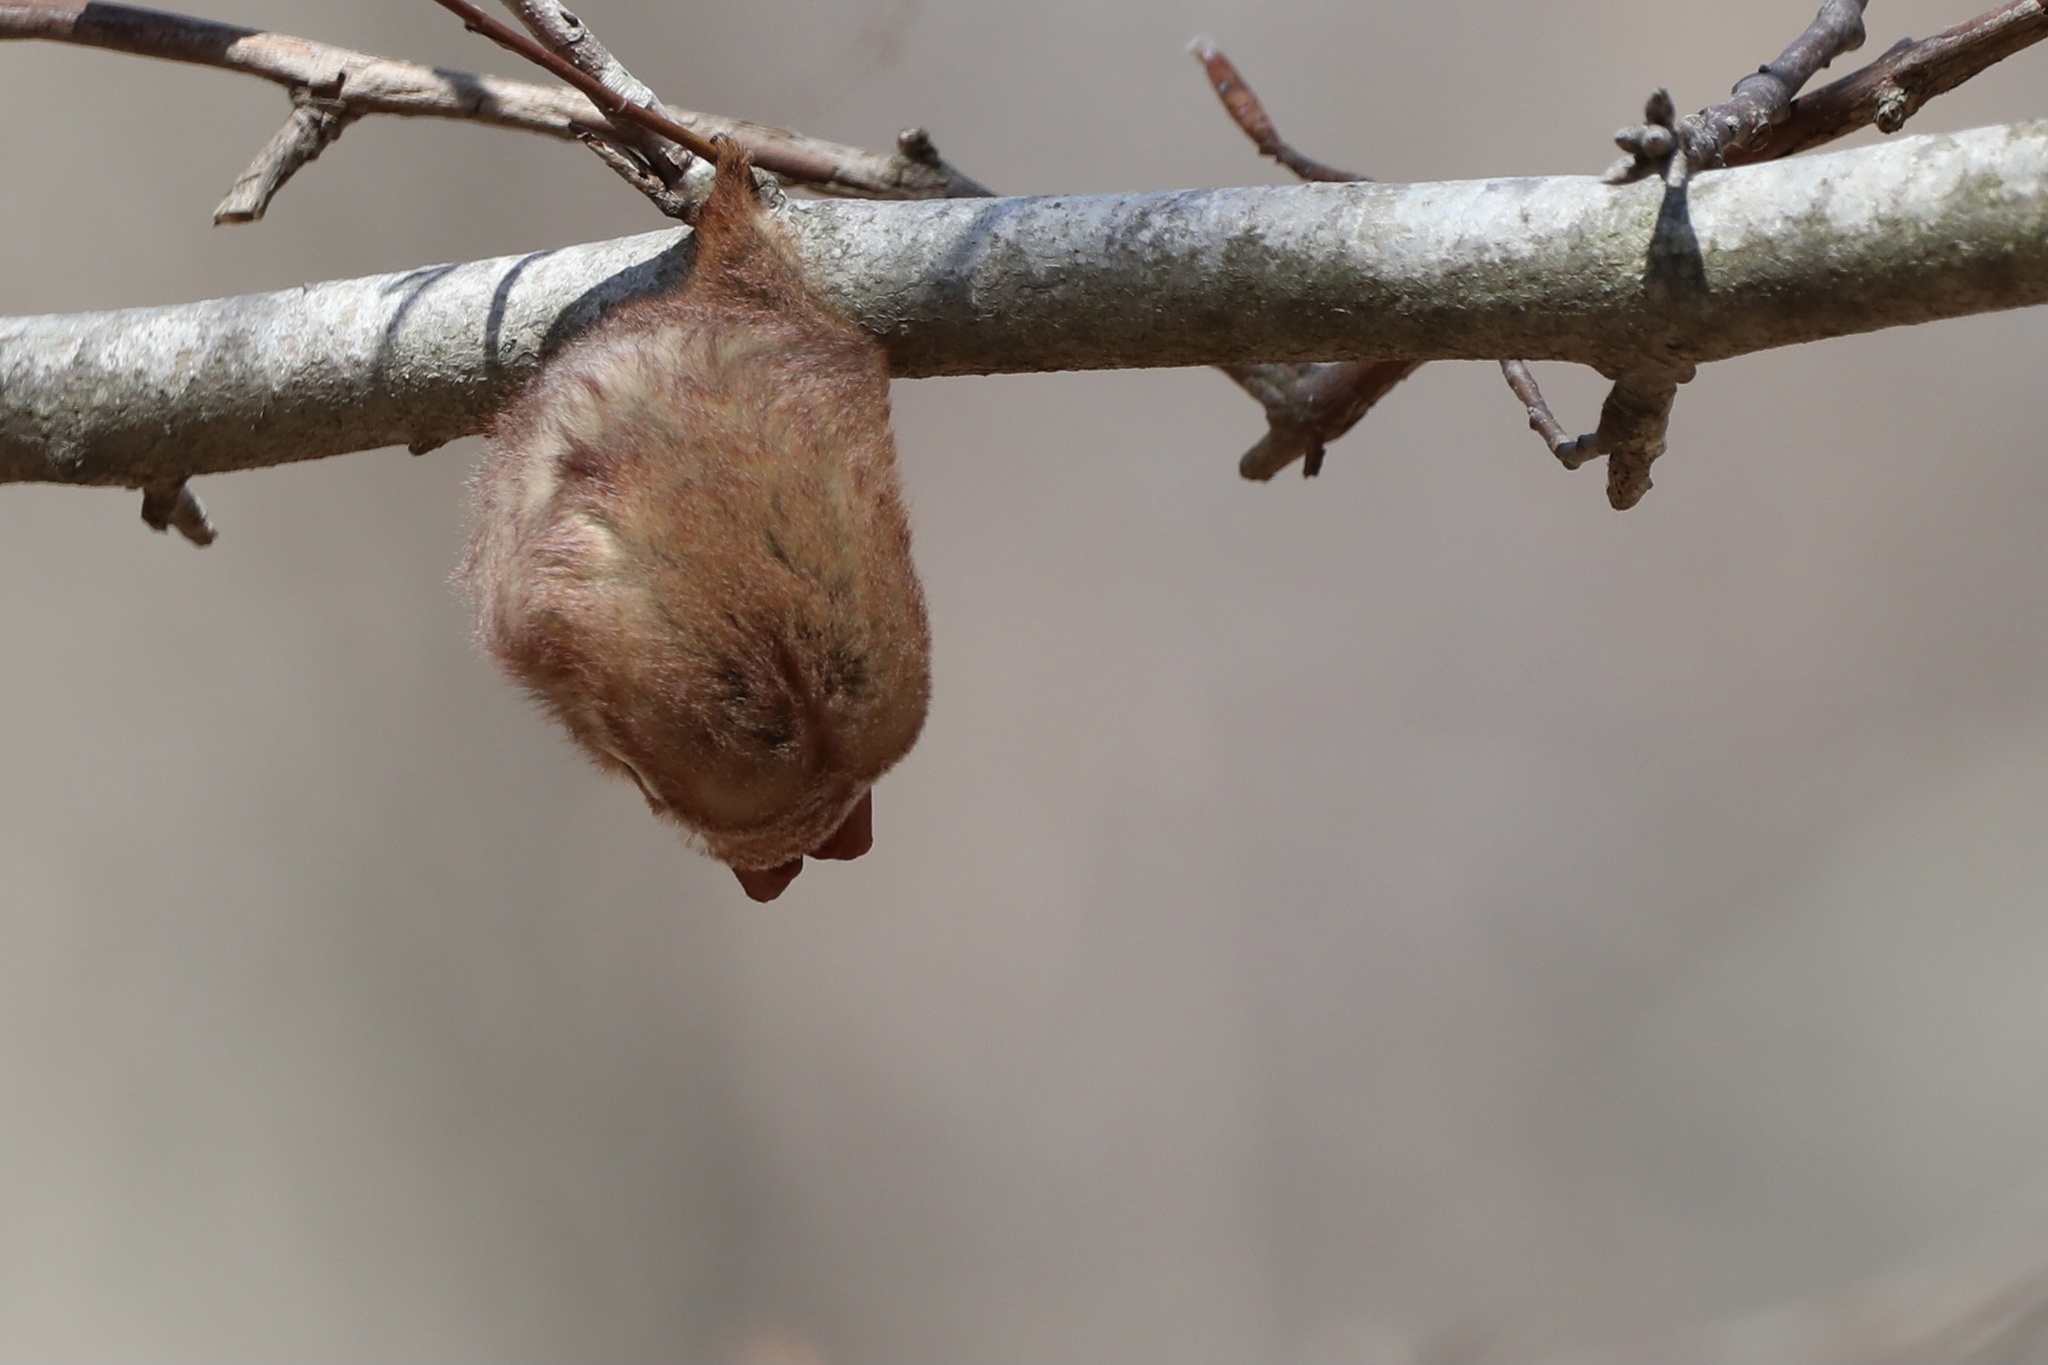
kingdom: Animalia
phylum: Chordata
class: Mammalia
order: Chiroptera
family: Vespertilionidae
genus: Lasiurus
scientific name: Lasiurus borealis
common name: Eastern red bat
